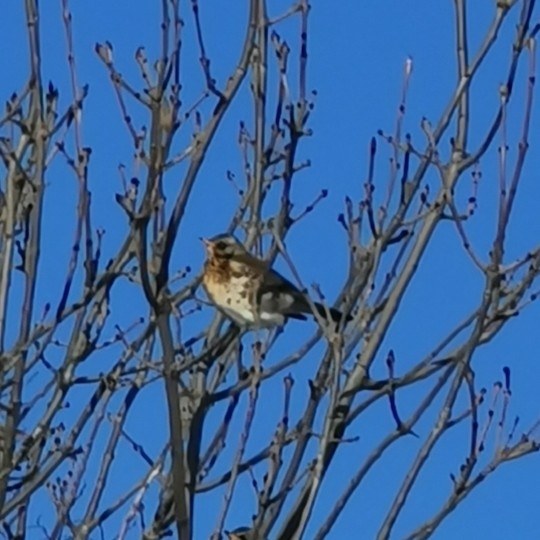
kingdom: Animalia
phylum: Chordata
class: Aves
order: Passeriformes
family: Turdidae
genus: Turdus
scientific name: Turdus pilaris
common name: Fieldfare
